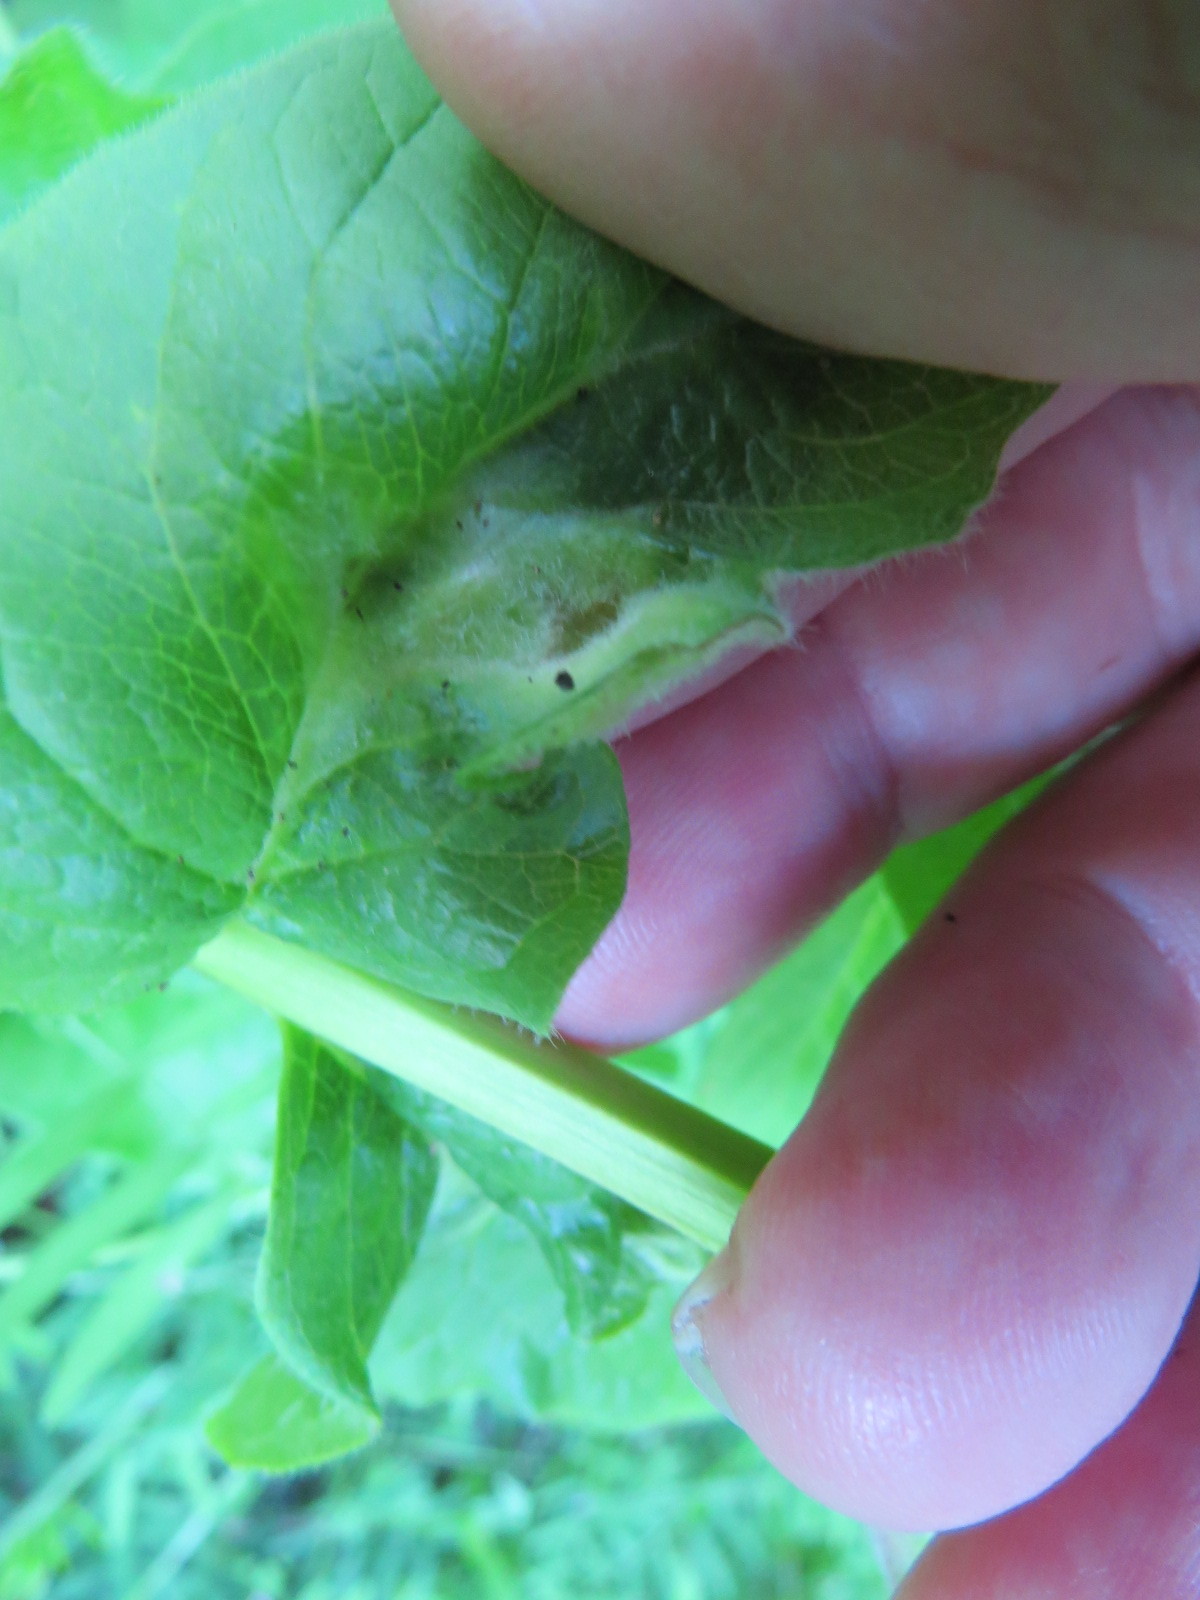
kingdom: Animalia
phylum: Arthropoda
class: Insecta
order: Diptera
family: Cecidomyiidae
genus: Dasineura
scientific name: Dasineura
